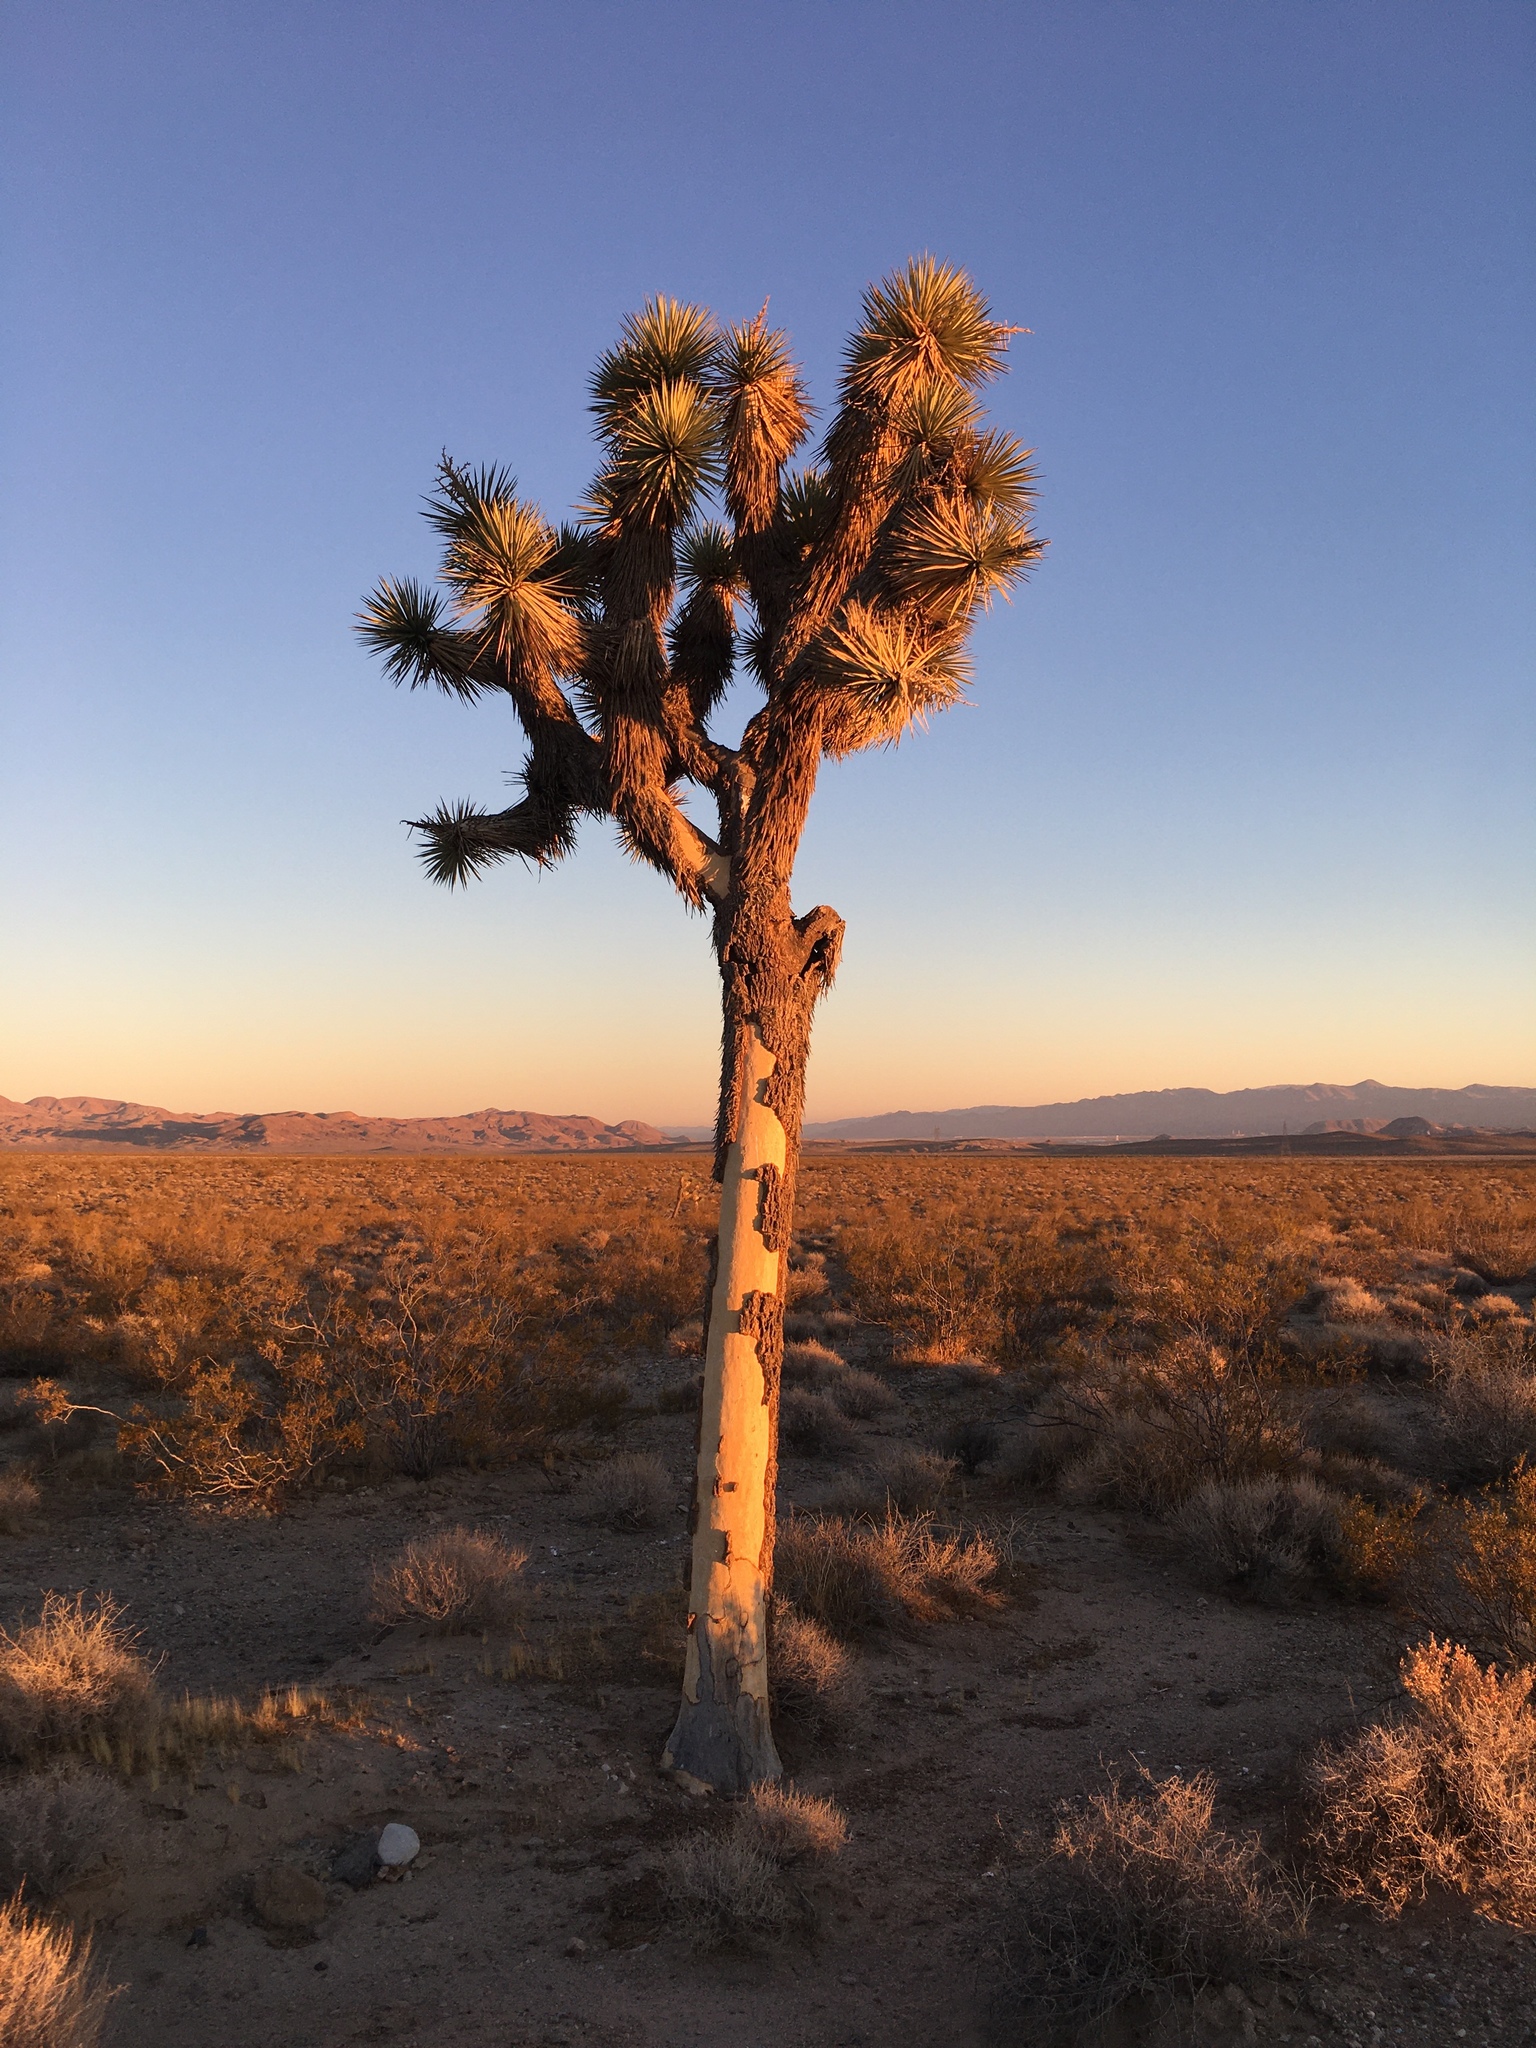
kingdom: Plantae
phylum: Tracheophyta
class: Liliopsida
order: Asparagales
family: Asparagaceae
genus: Yucca
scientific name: Yucca brevifolia
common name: Joshua tree
